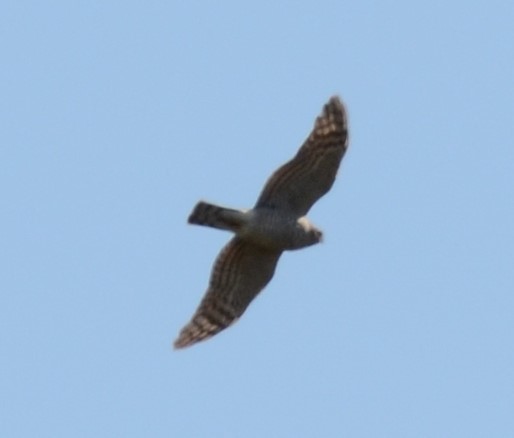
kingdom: Animalia
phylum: Chordata
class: Aves
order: Accipitriformes
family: Accipitridae
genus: Accipiter
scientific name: Accipiter nisus
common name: Eurasian sparrowhawk
